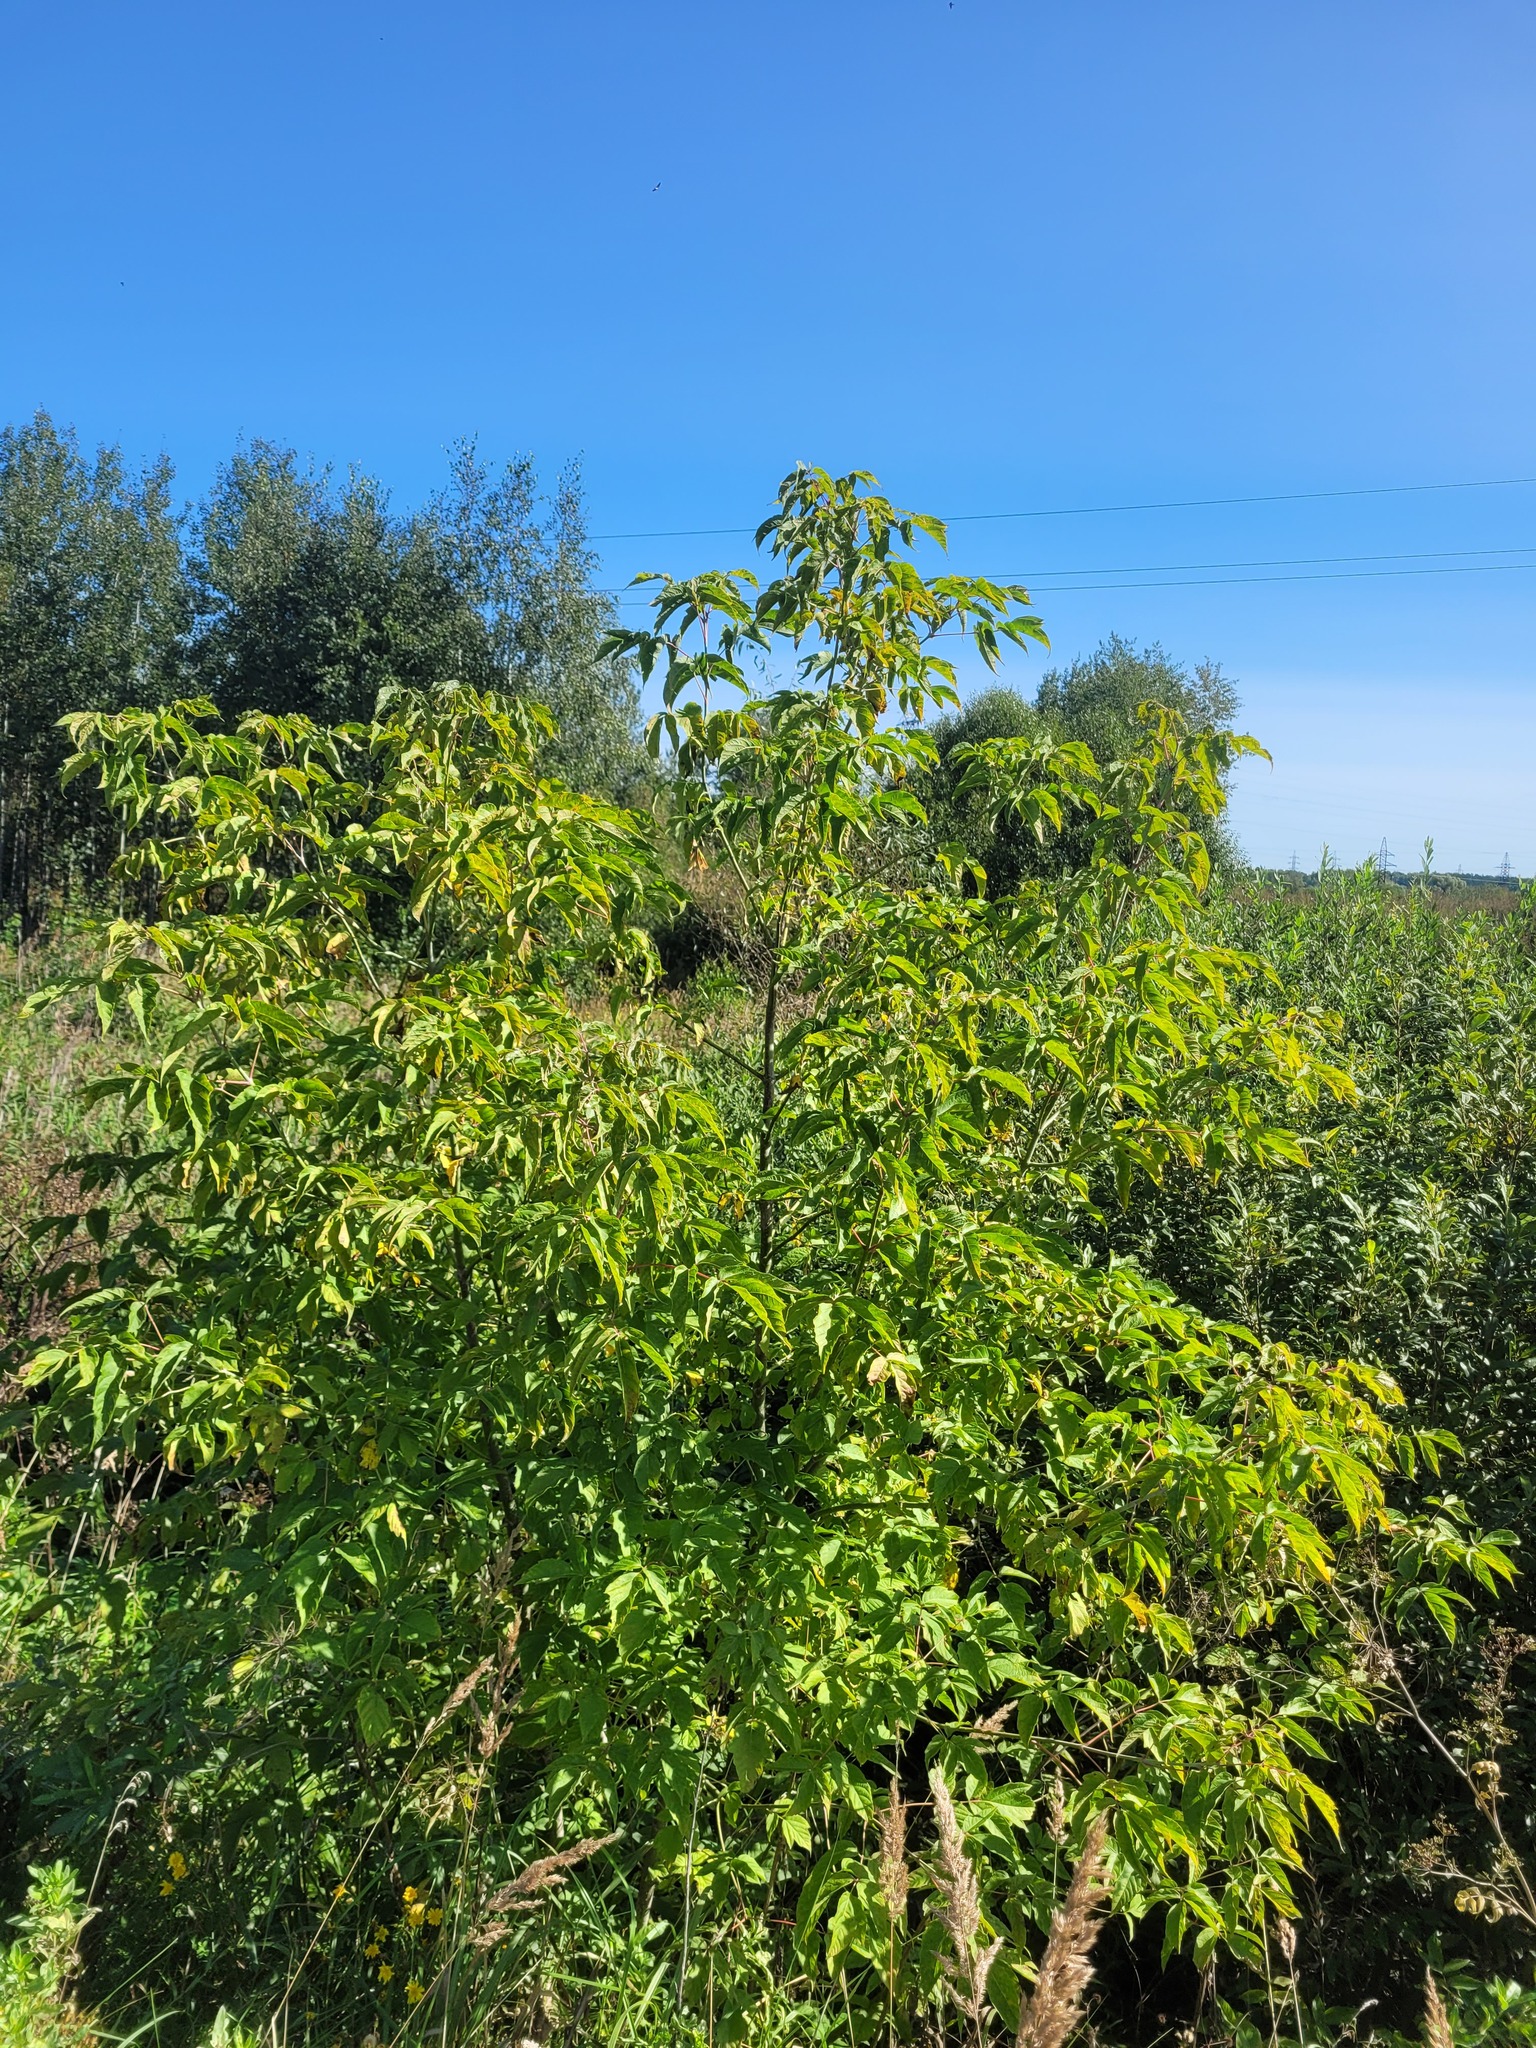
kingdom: Plantae
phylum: Tracheophyta
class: Magnoliopsida
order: Sapindales
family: Sapindaceae
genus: Acer
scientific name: Acer negundo
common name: Ashleaf maple
